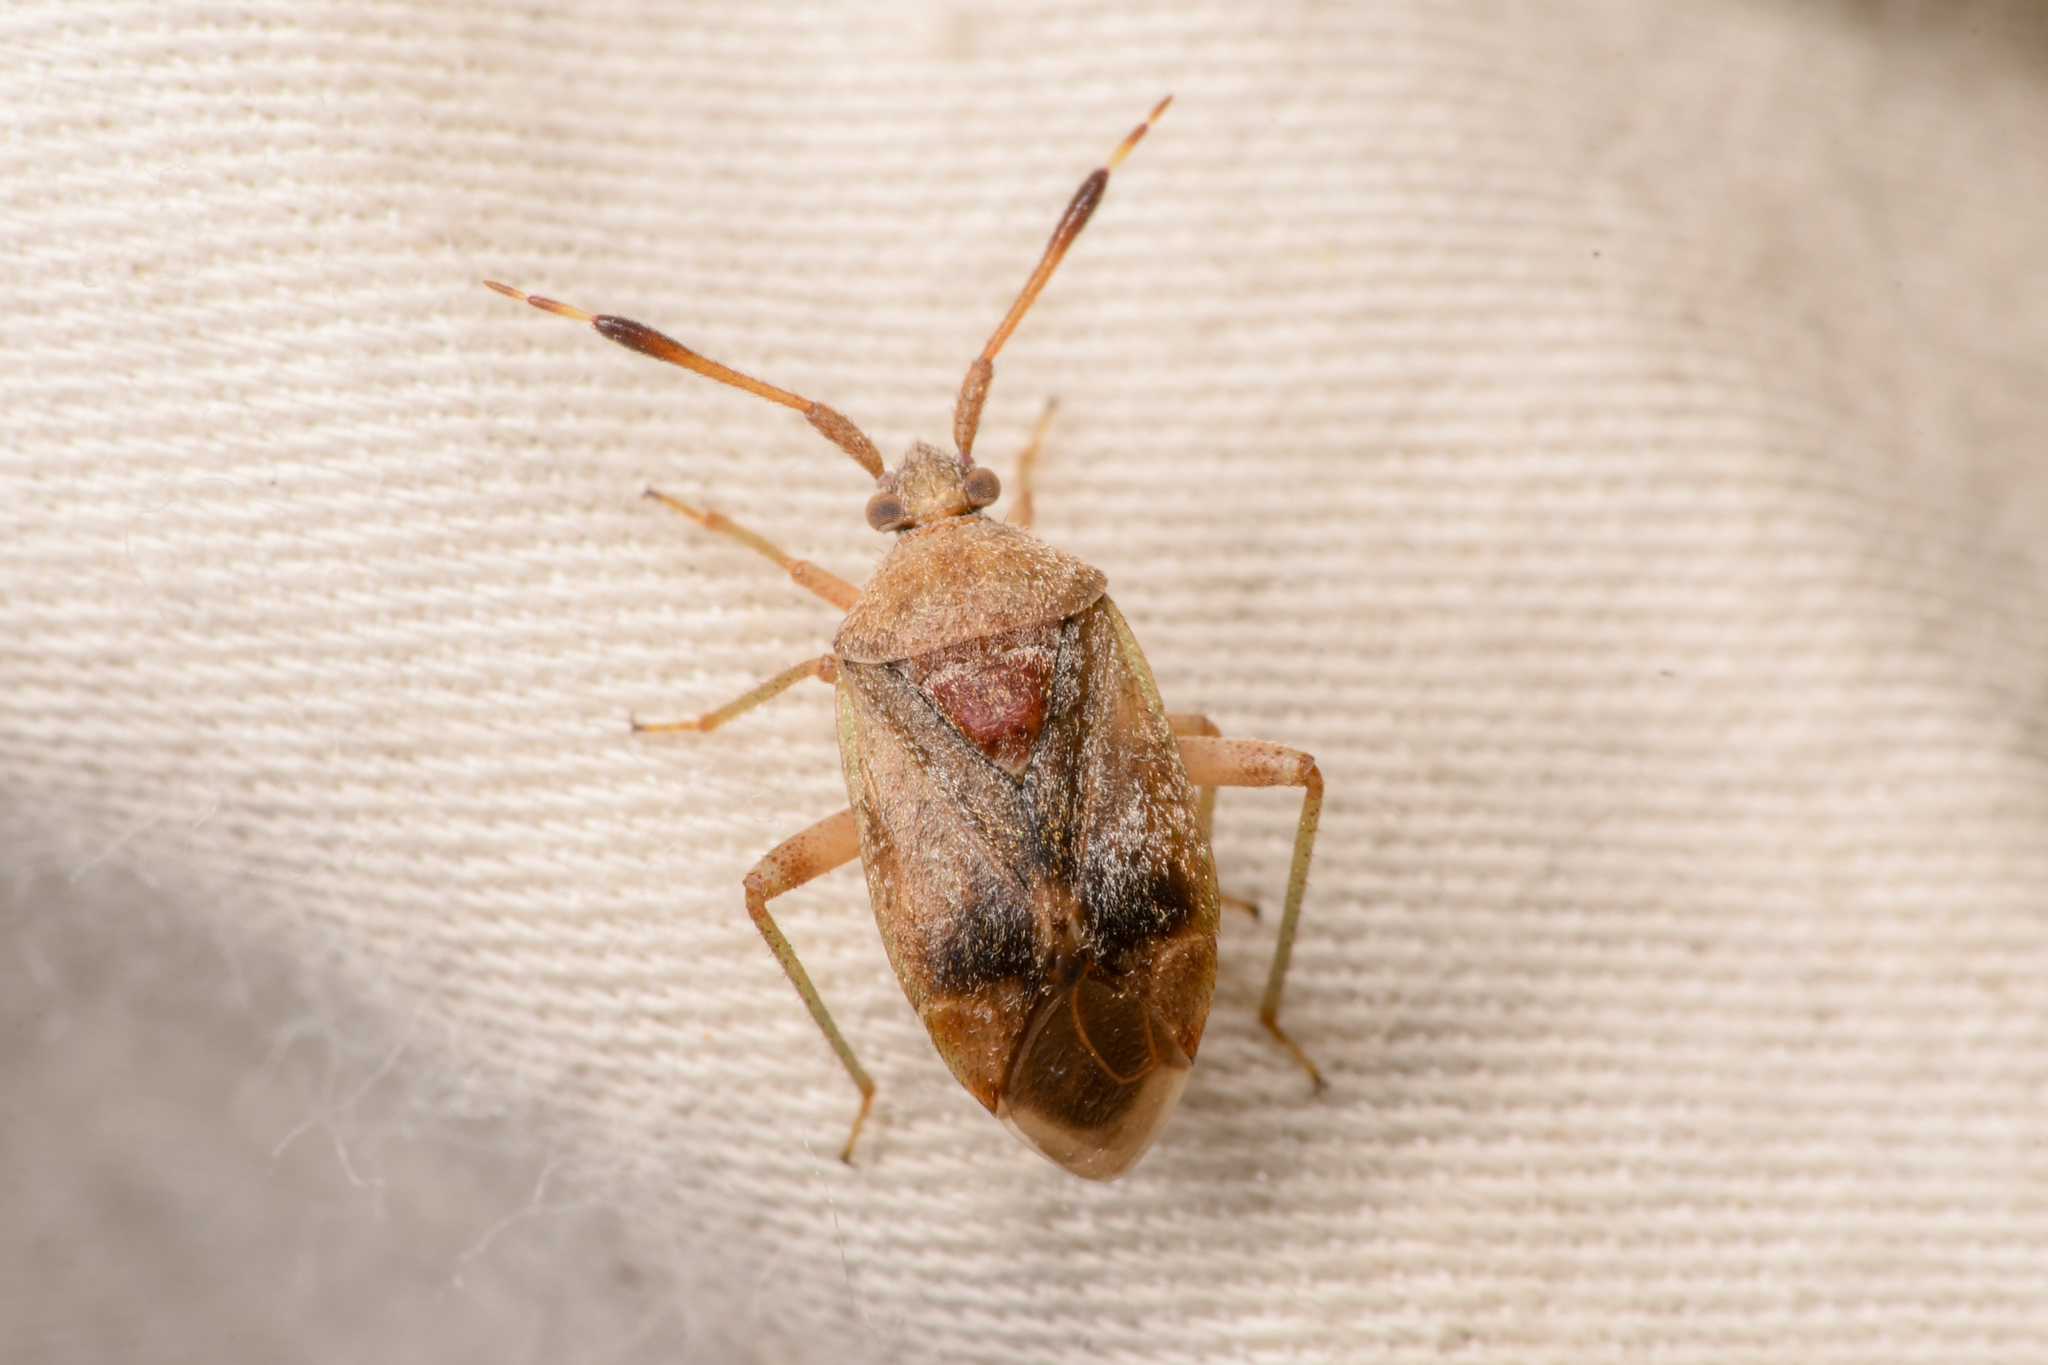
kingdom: Animalia
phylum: Arthropoda
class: Insecta
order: Hemiptera
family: Miridae
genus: Pycnocoris
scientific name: Pycnocoris ursinus
